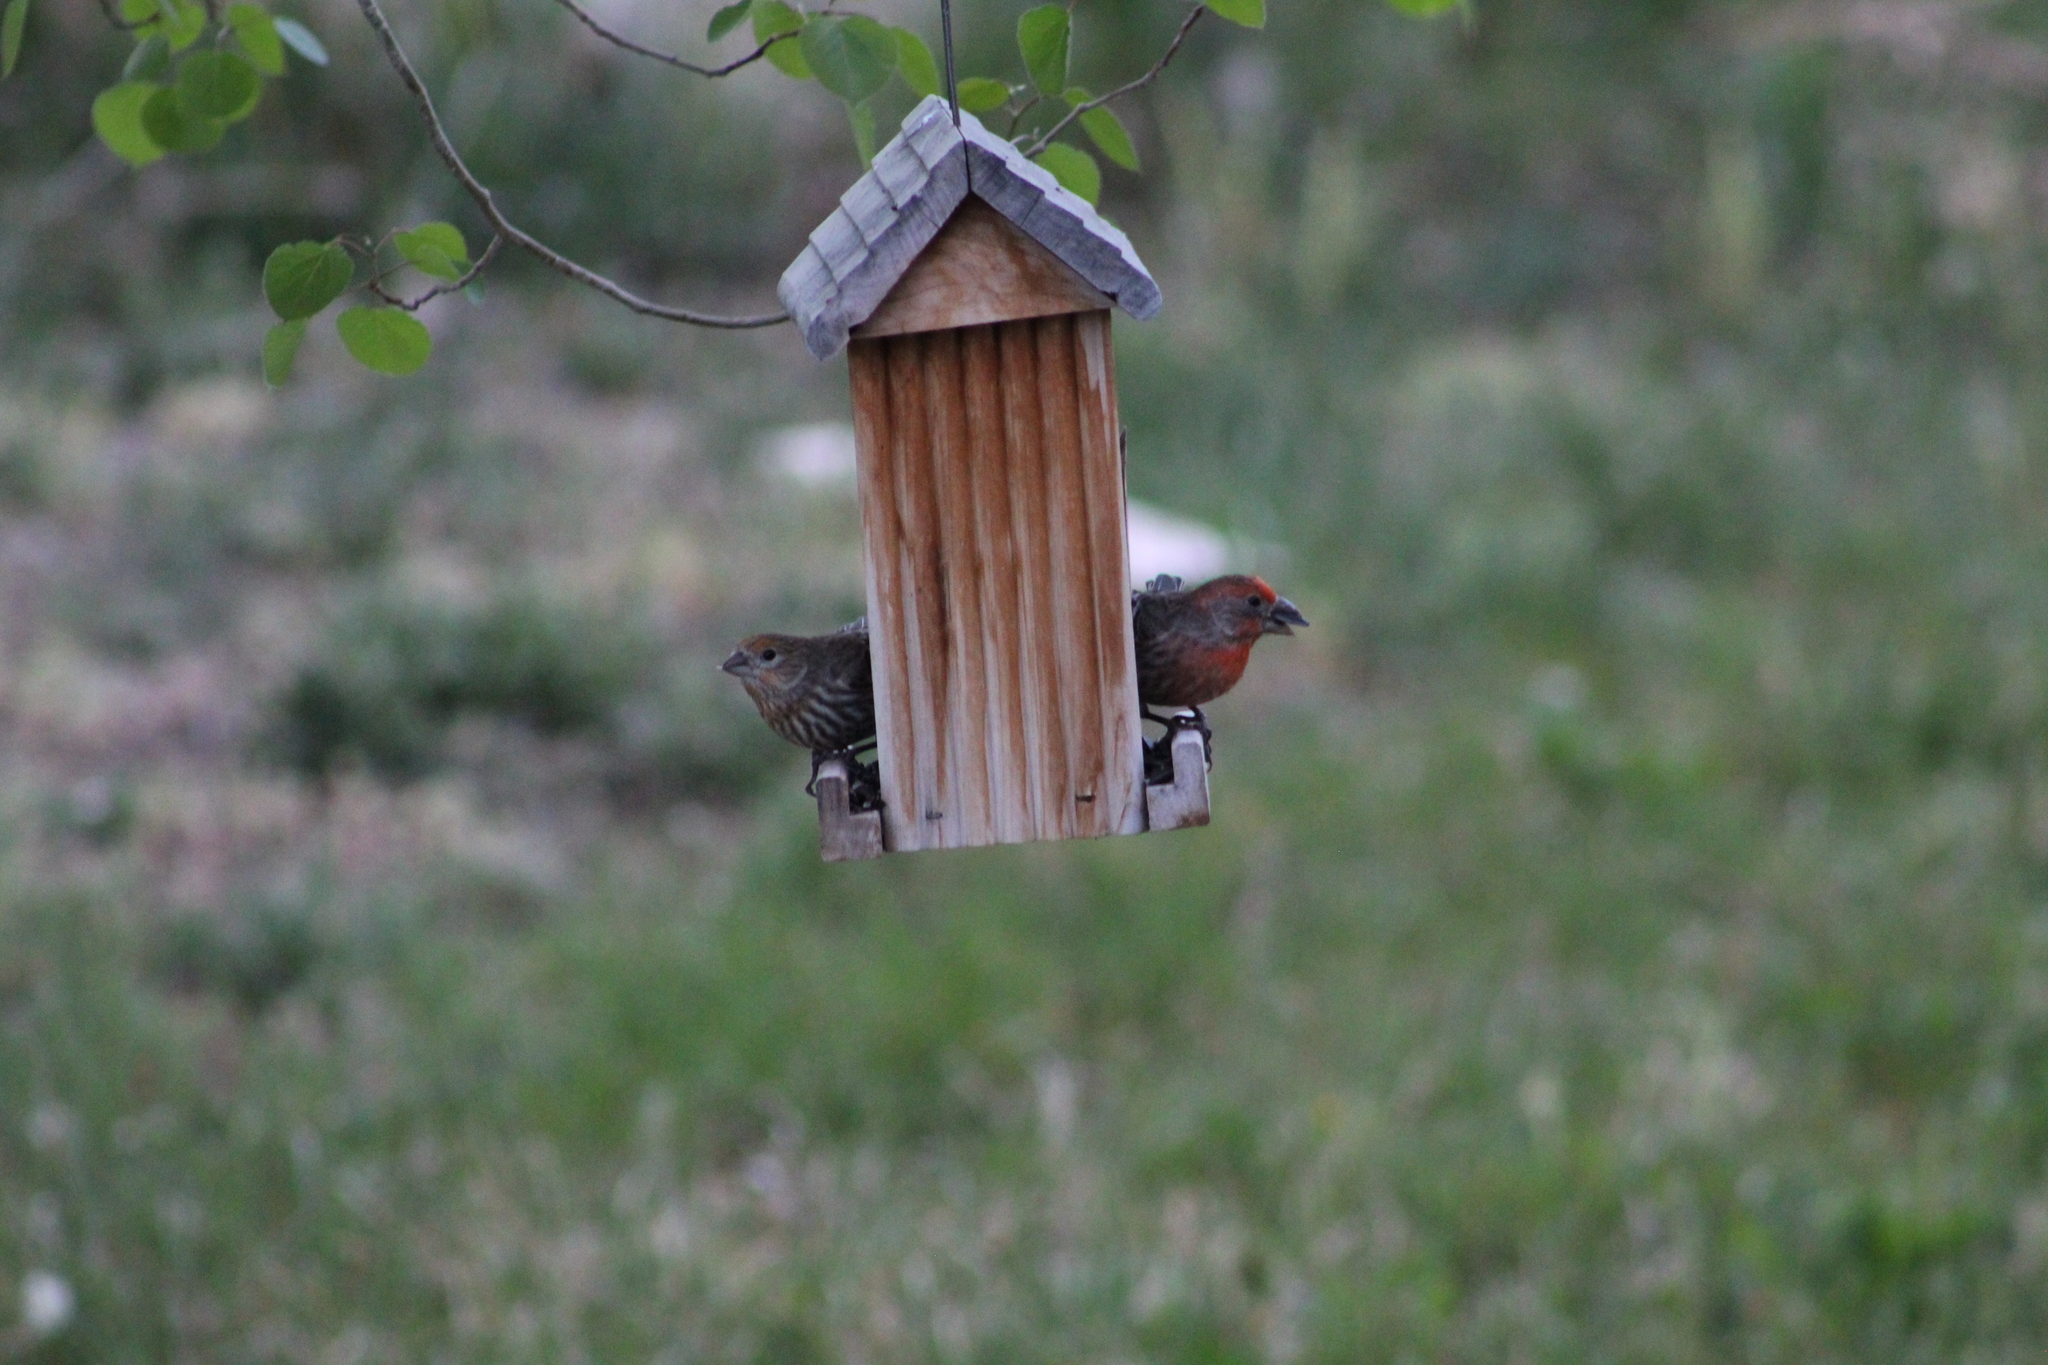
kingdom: Animalia
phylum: Chordata
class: Aves
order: Passeriformes
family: Fringillidae
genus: Haemorhous
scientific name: Haemorhous mexicanus
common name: House finch
